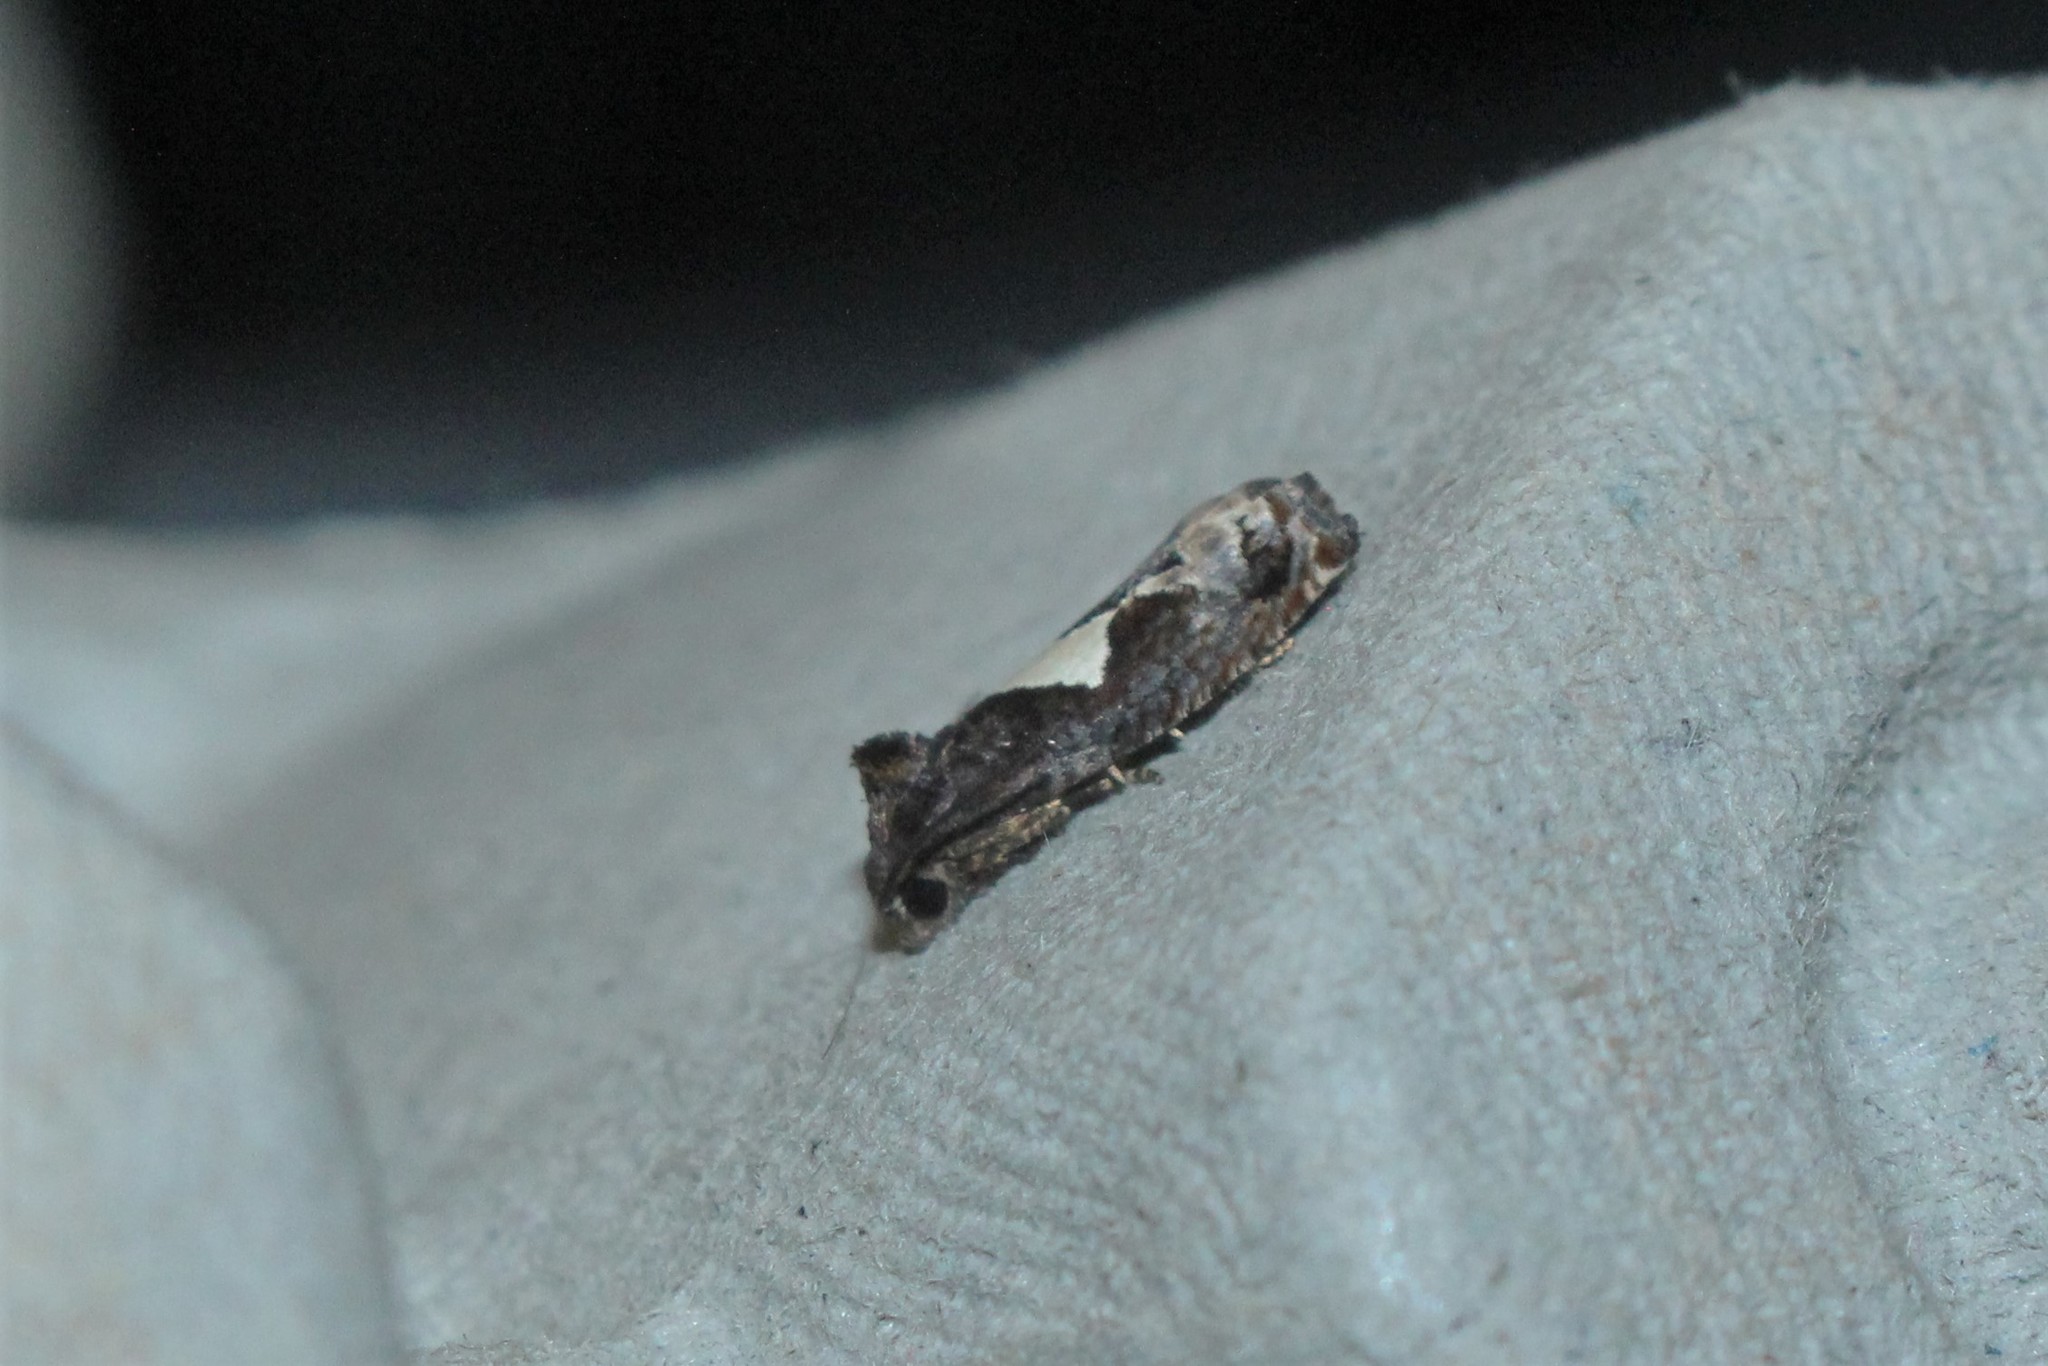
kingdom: Animalia
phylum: Arthropoda
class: Insecta
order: Lepidoptera
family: Tortricidae
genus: Epiblema
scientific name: Epiblema otiosana
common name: Bidens borer moth
